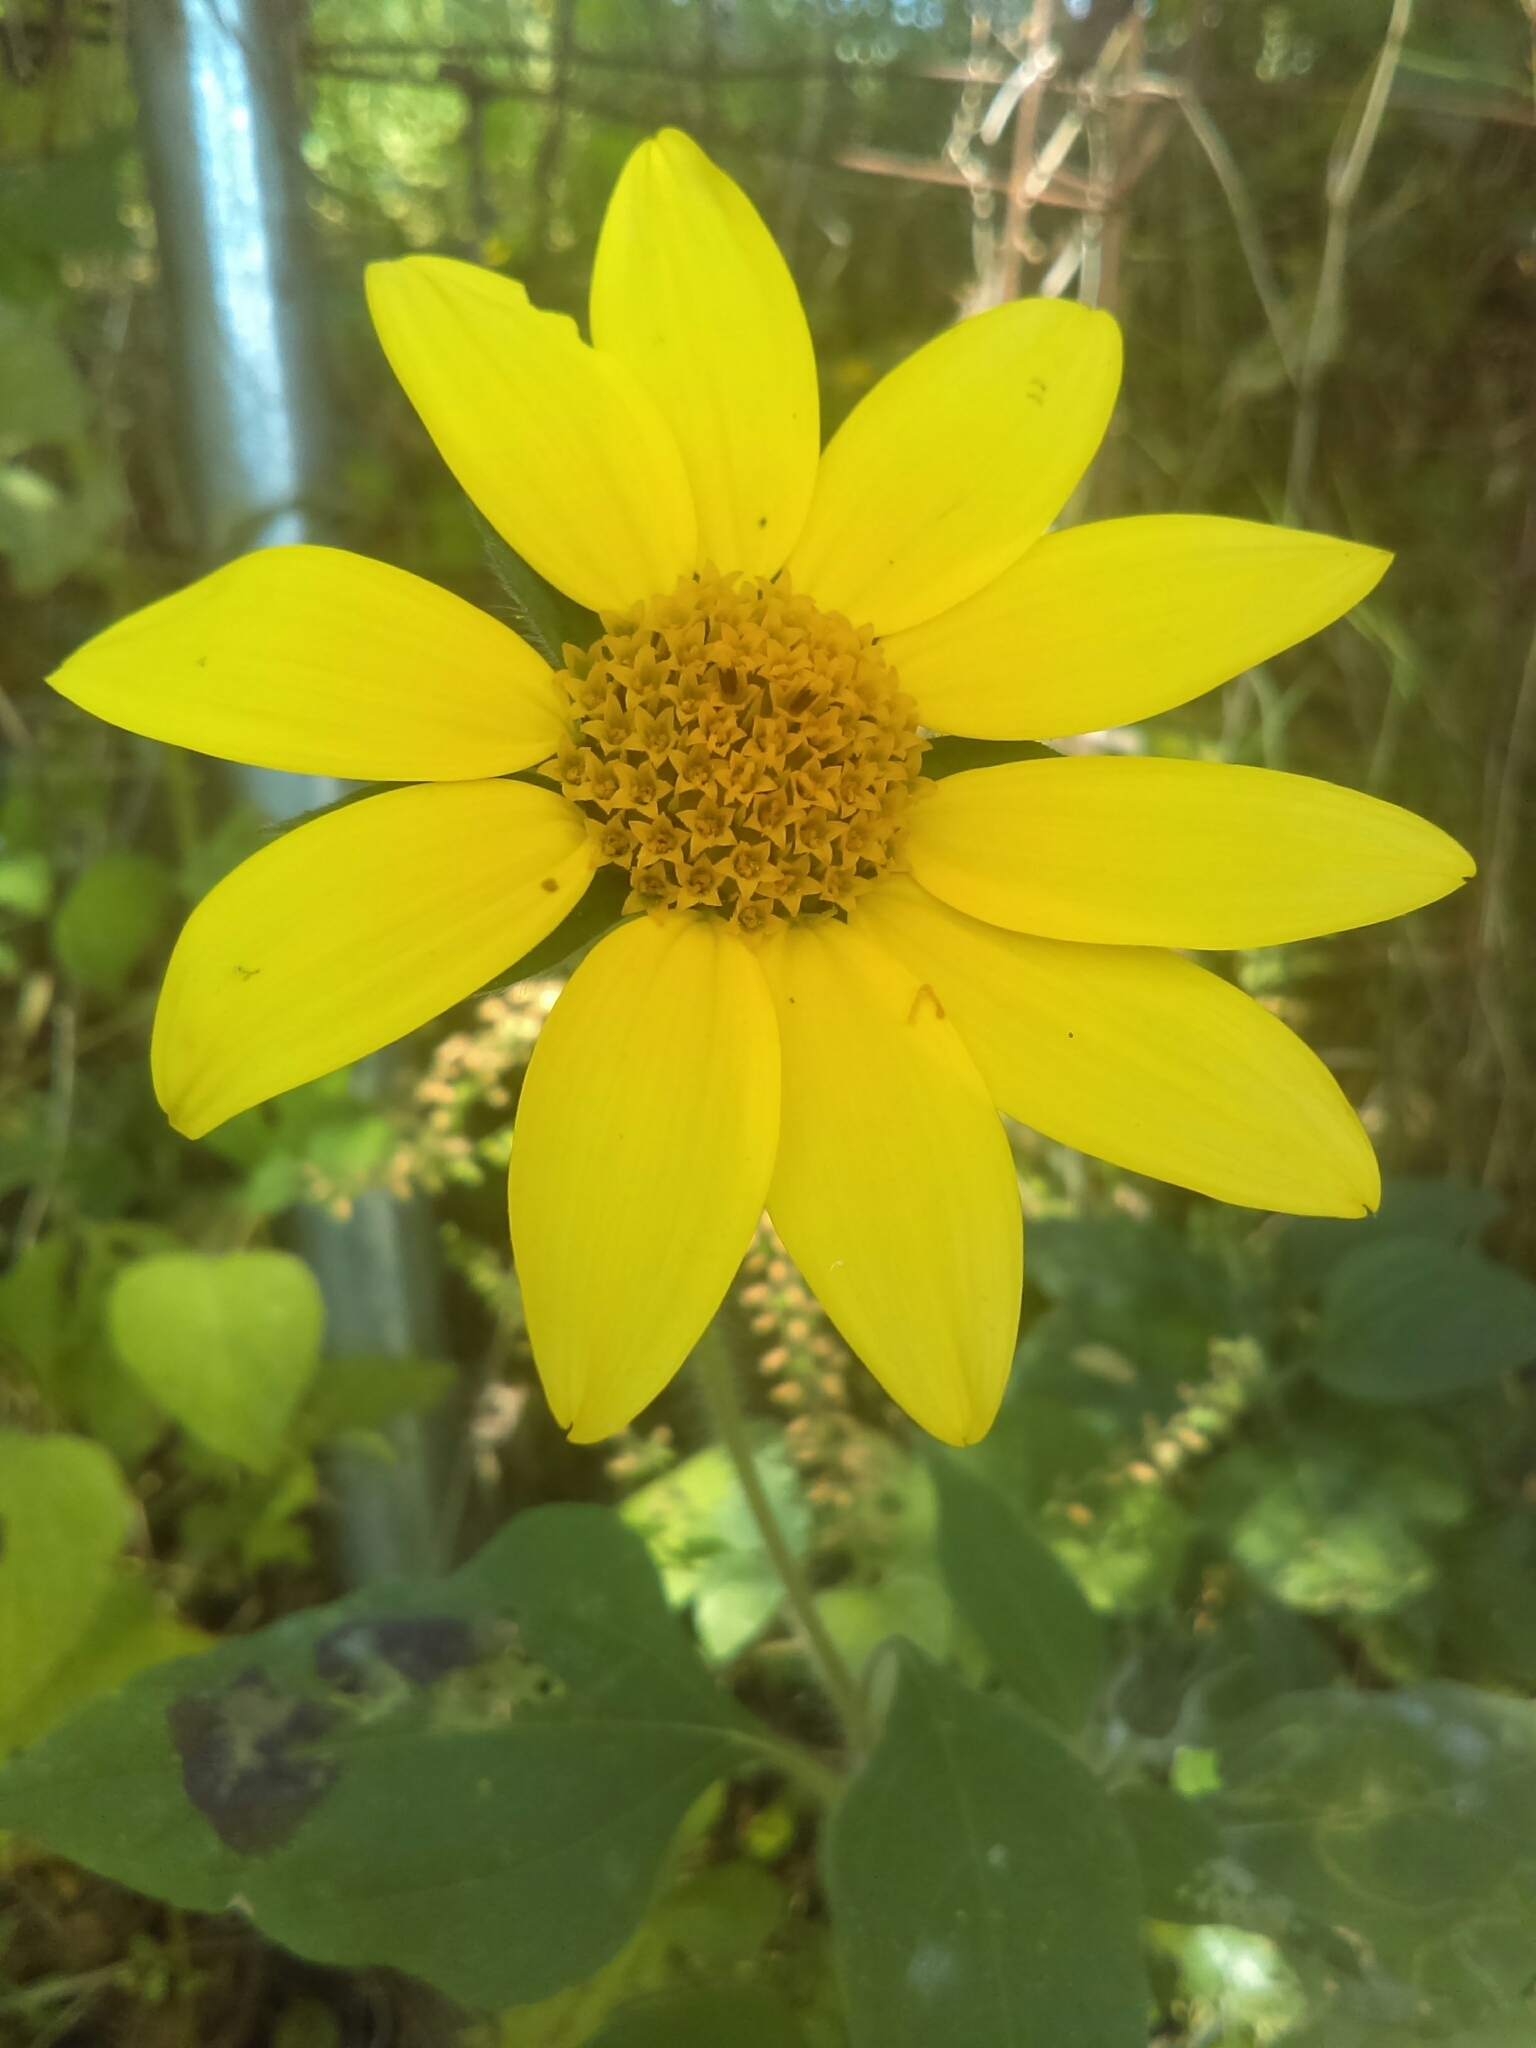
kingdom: Plantae
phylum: Tracheophyta
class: Magnoliopsida
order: Asterales
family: Asteraceae
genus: Tithonia
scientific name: Tithonia tubaeformis
